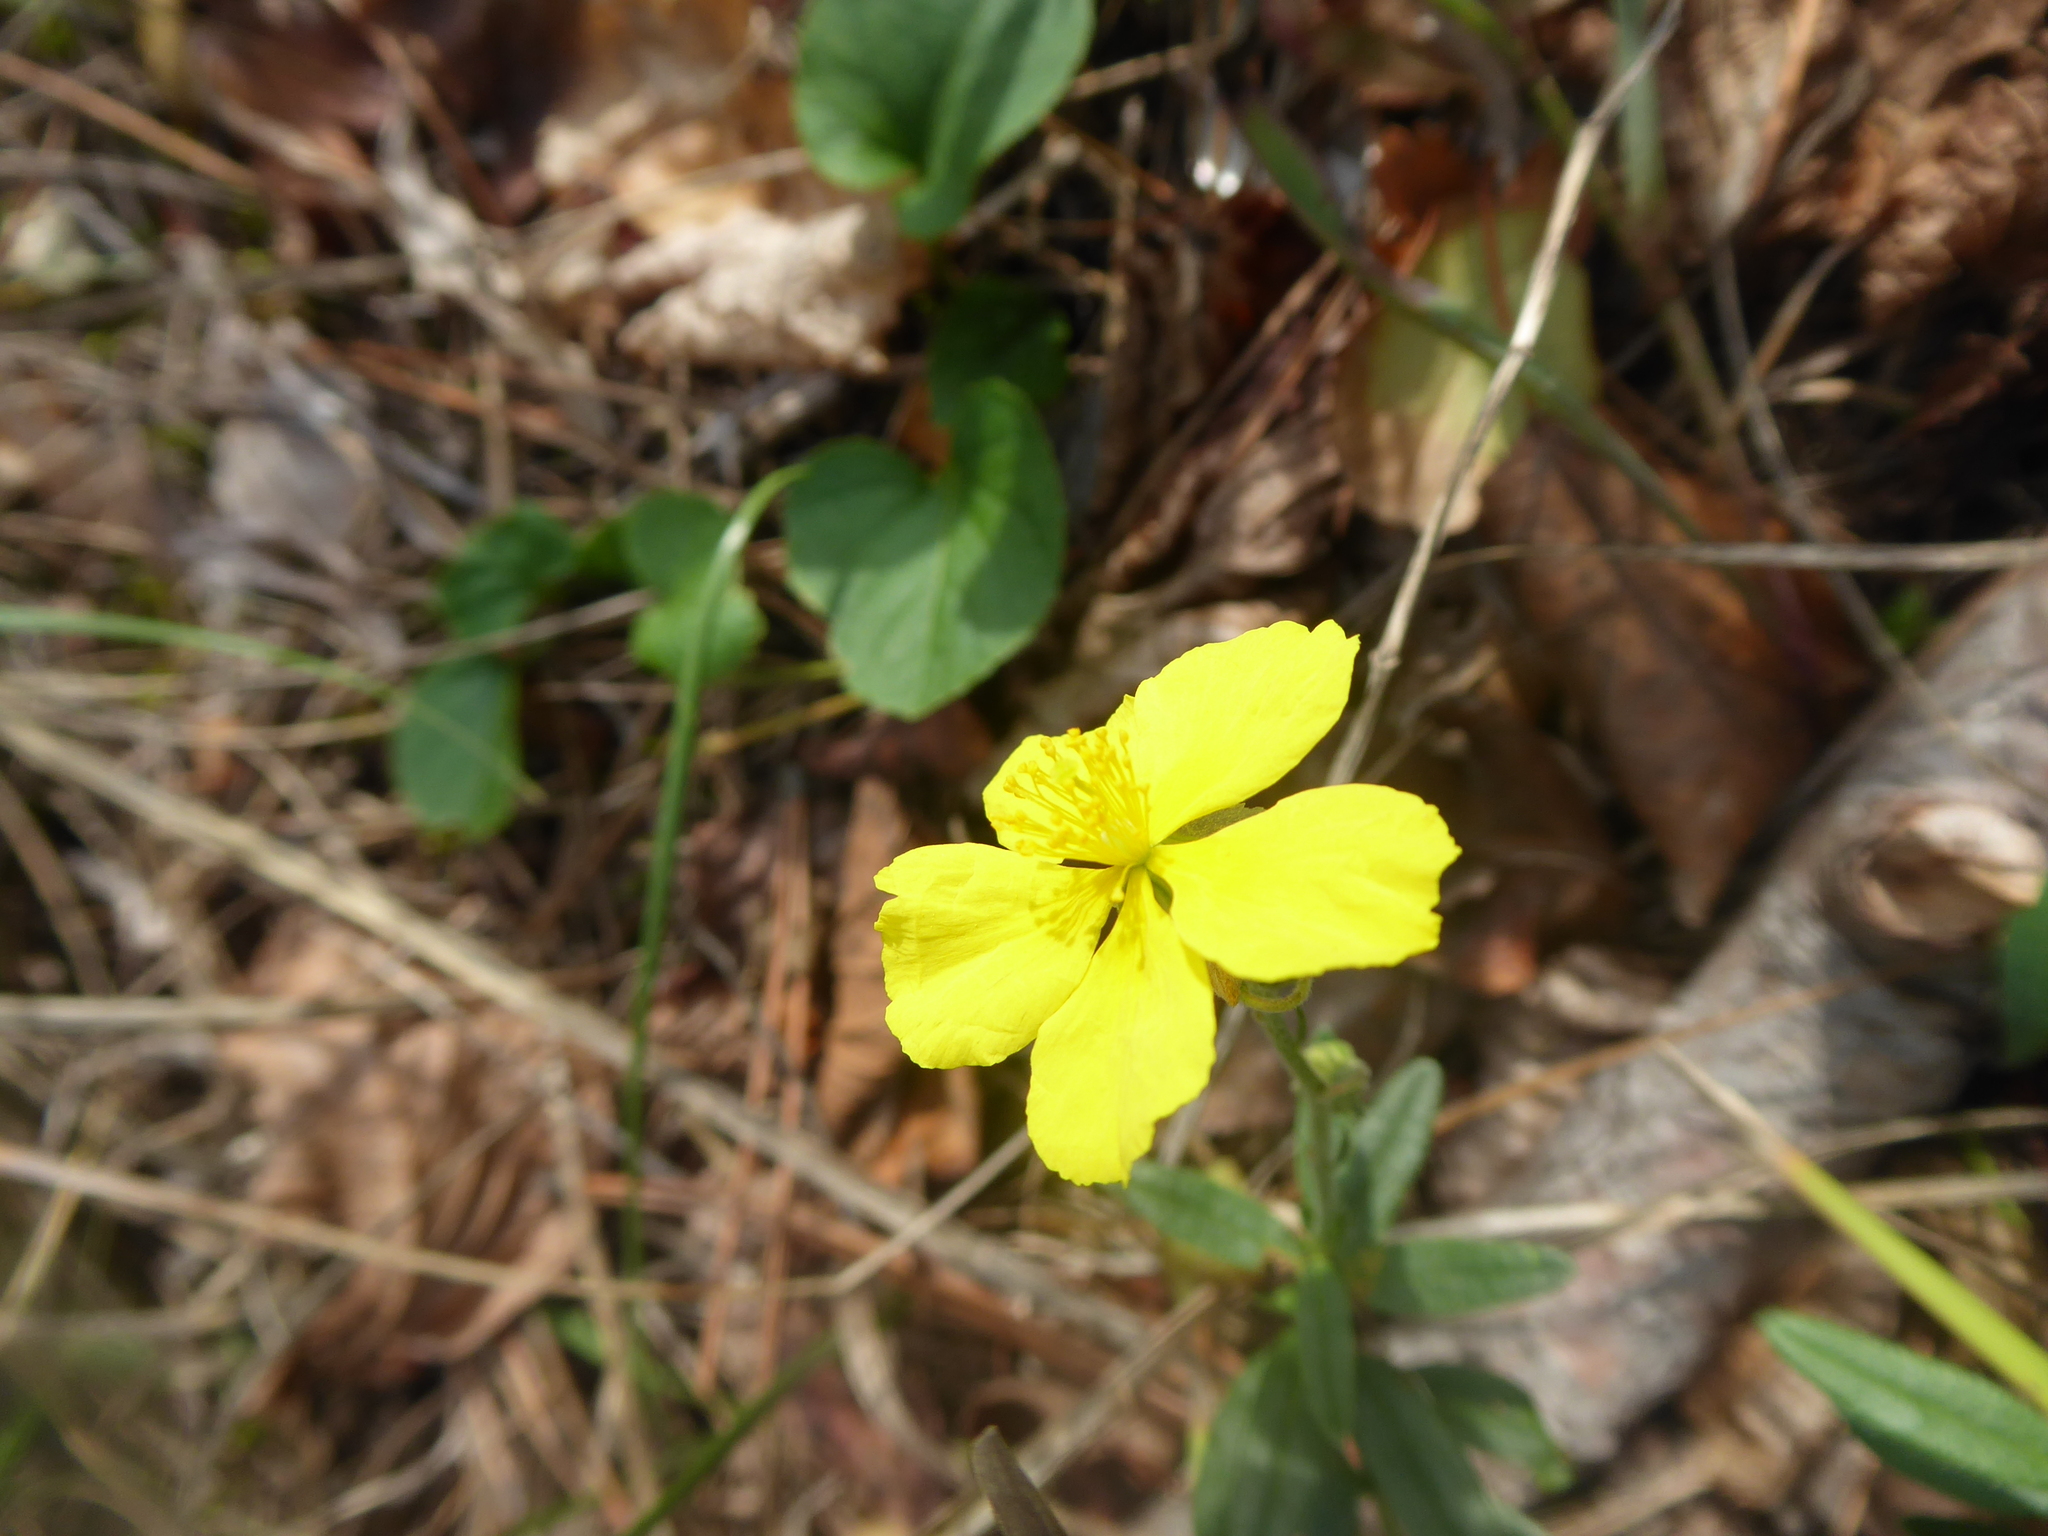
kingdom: Plantae
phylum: Tracheophyta
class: Magnoliopsida
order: Malvales
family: Cistaceae
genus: Helianthemum
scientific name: Helianthemum nummularium
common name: Common rock-rose
